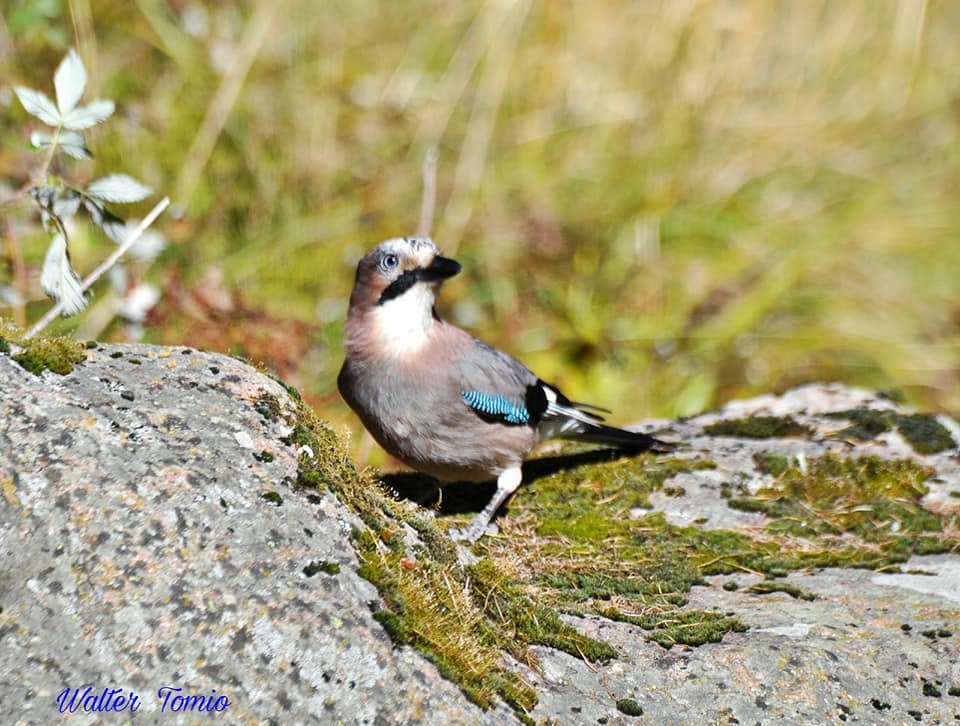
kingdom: Animalia
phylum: Chordata
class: Aves
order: Passeriformes
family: Corvidae
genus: Garrulus
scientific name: Garrulus glandarius
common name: Eurasian jay
